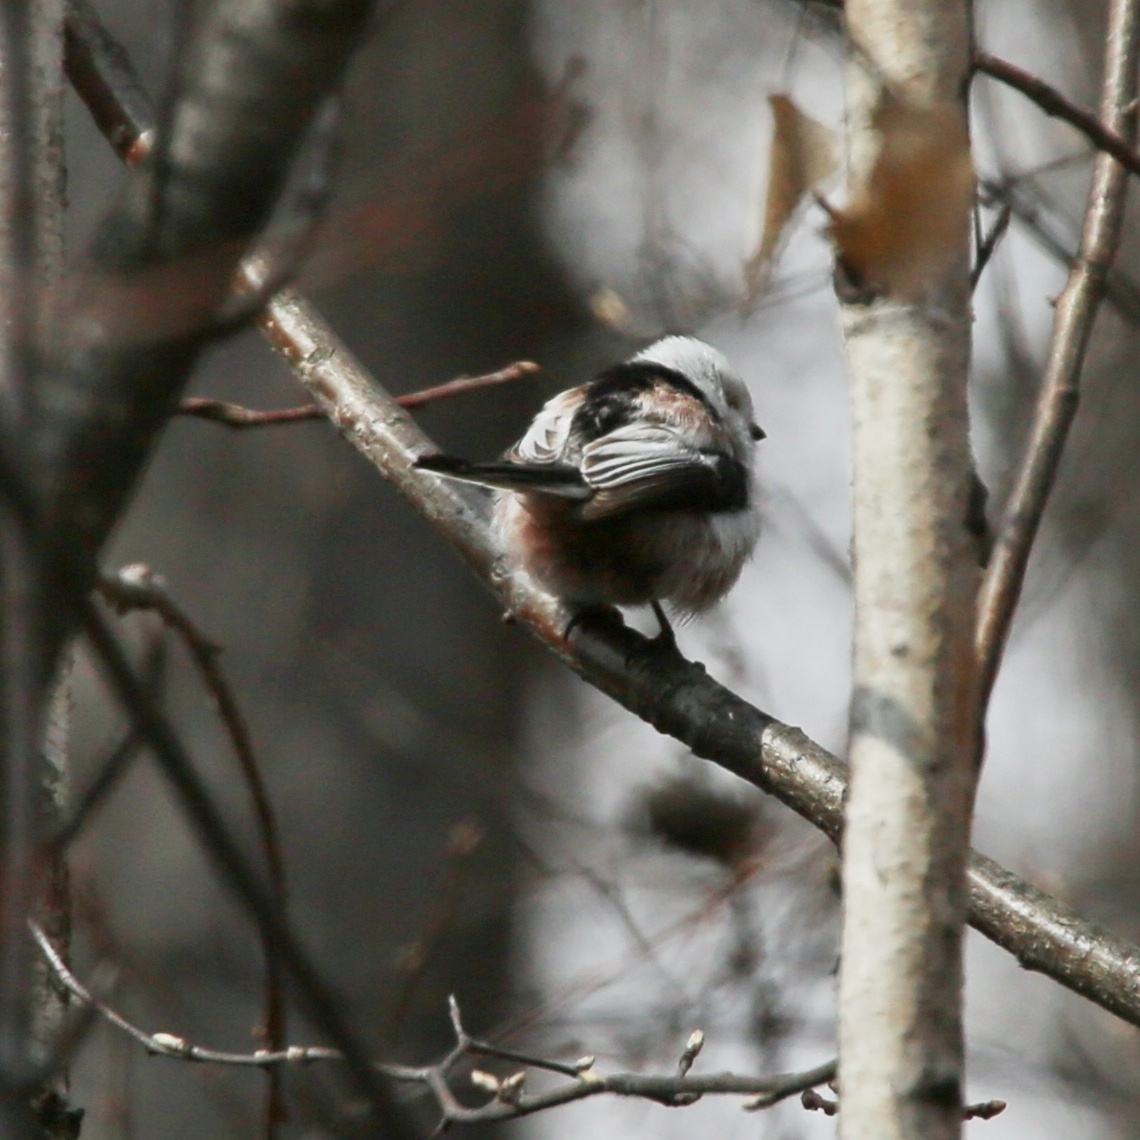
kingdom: Animalia
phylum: Chordata
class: Aves
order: Passeriformes
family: Aegithalidae
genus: Aegithalos
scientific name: Aegithalos caudatus
